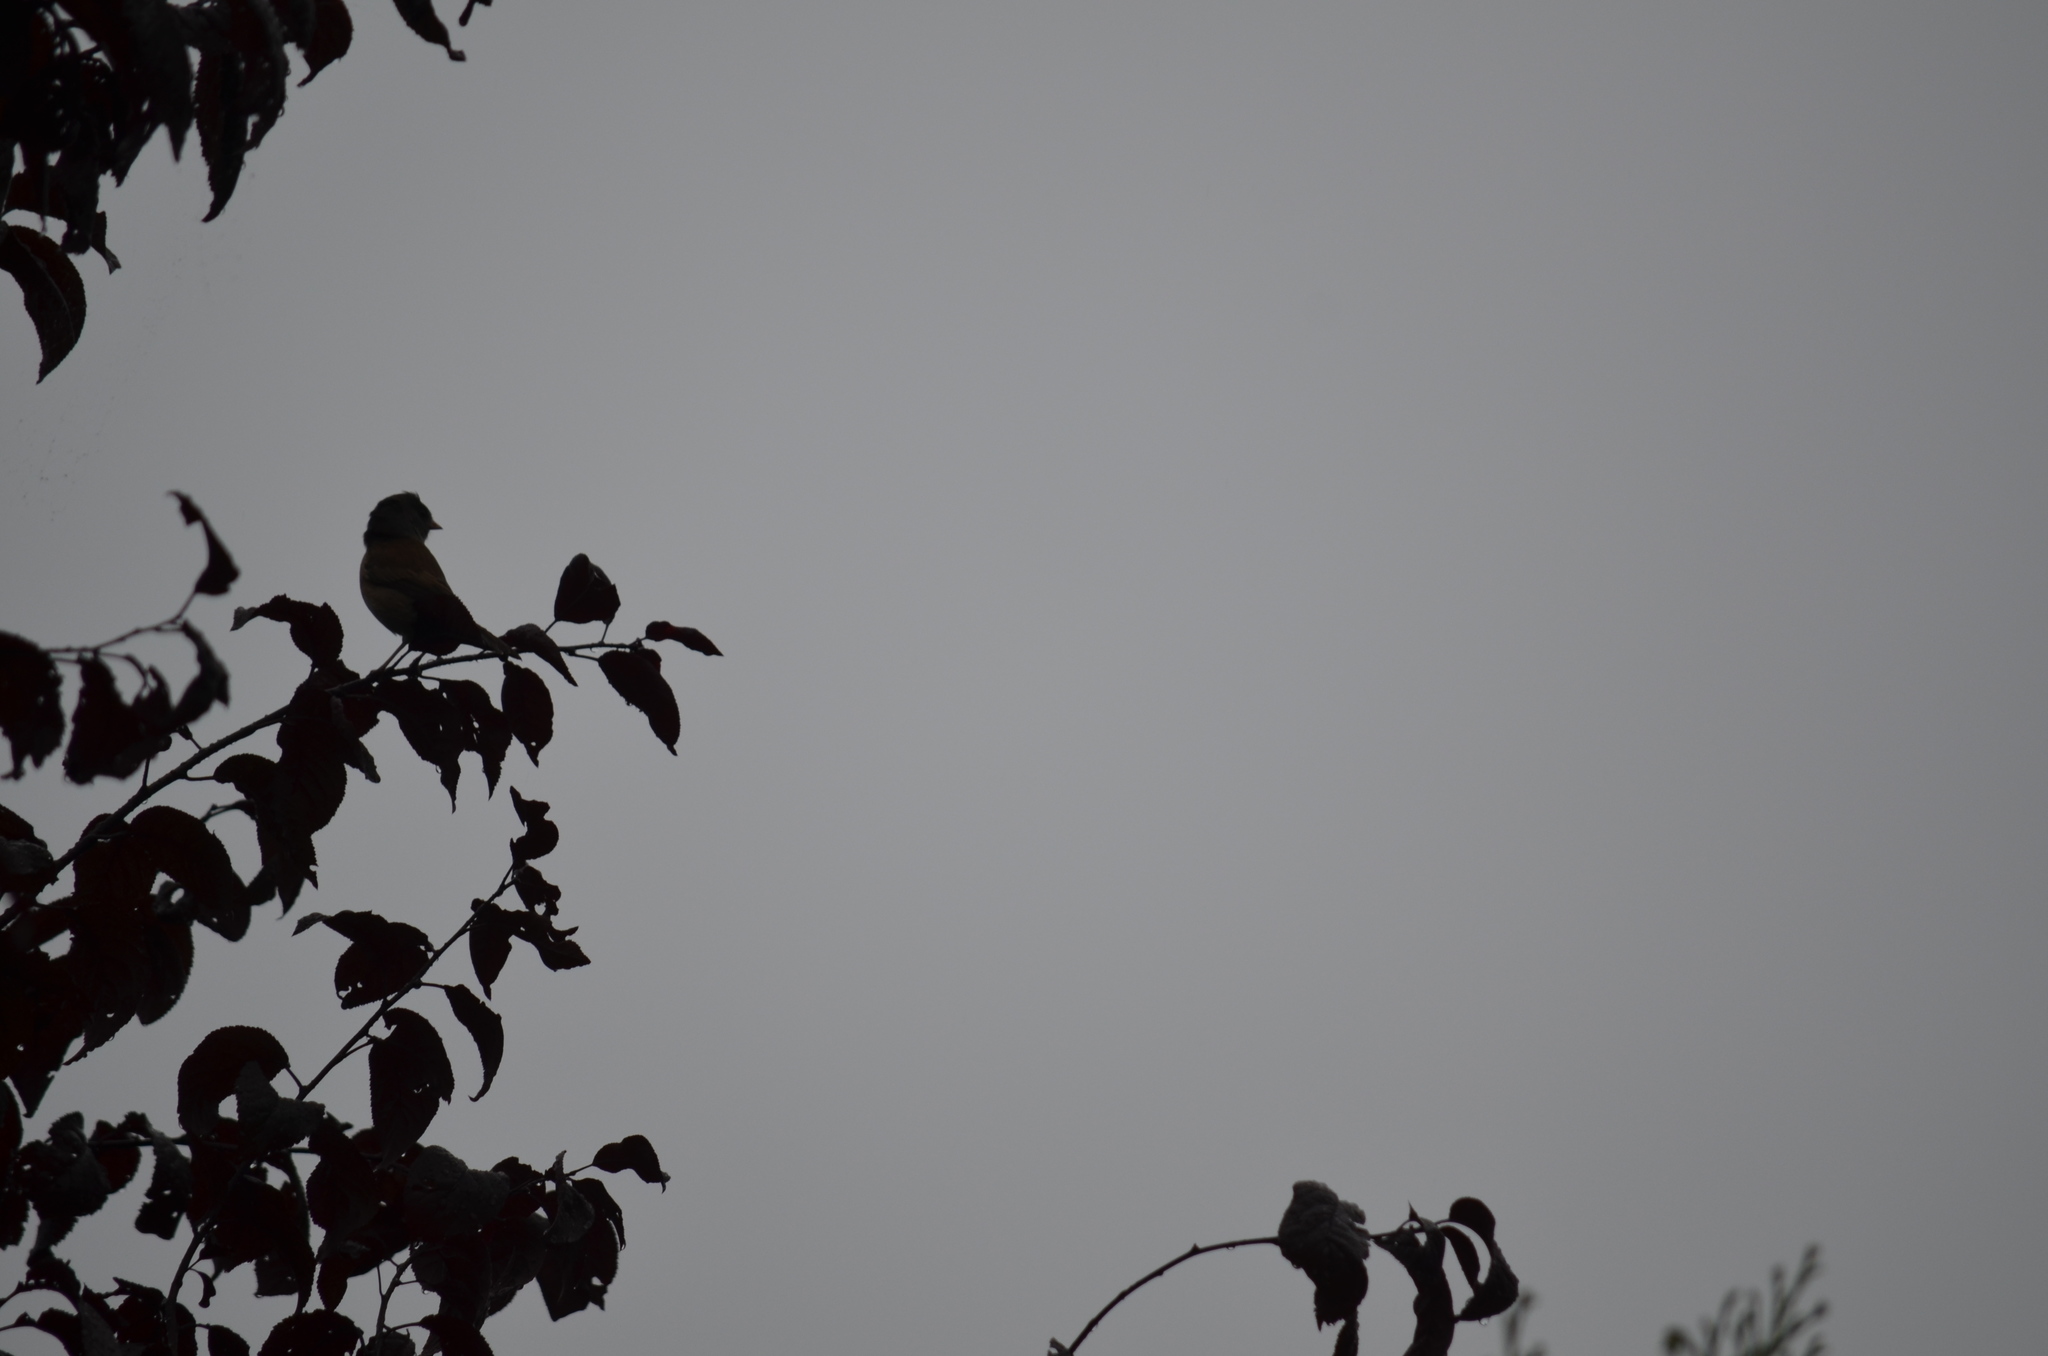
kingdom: Animalia
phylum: Chordata
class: Aves
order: Passeriformes
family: Passerellidae
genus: Junco
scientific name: Junco hyemalis
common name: Dark-eyed junco
